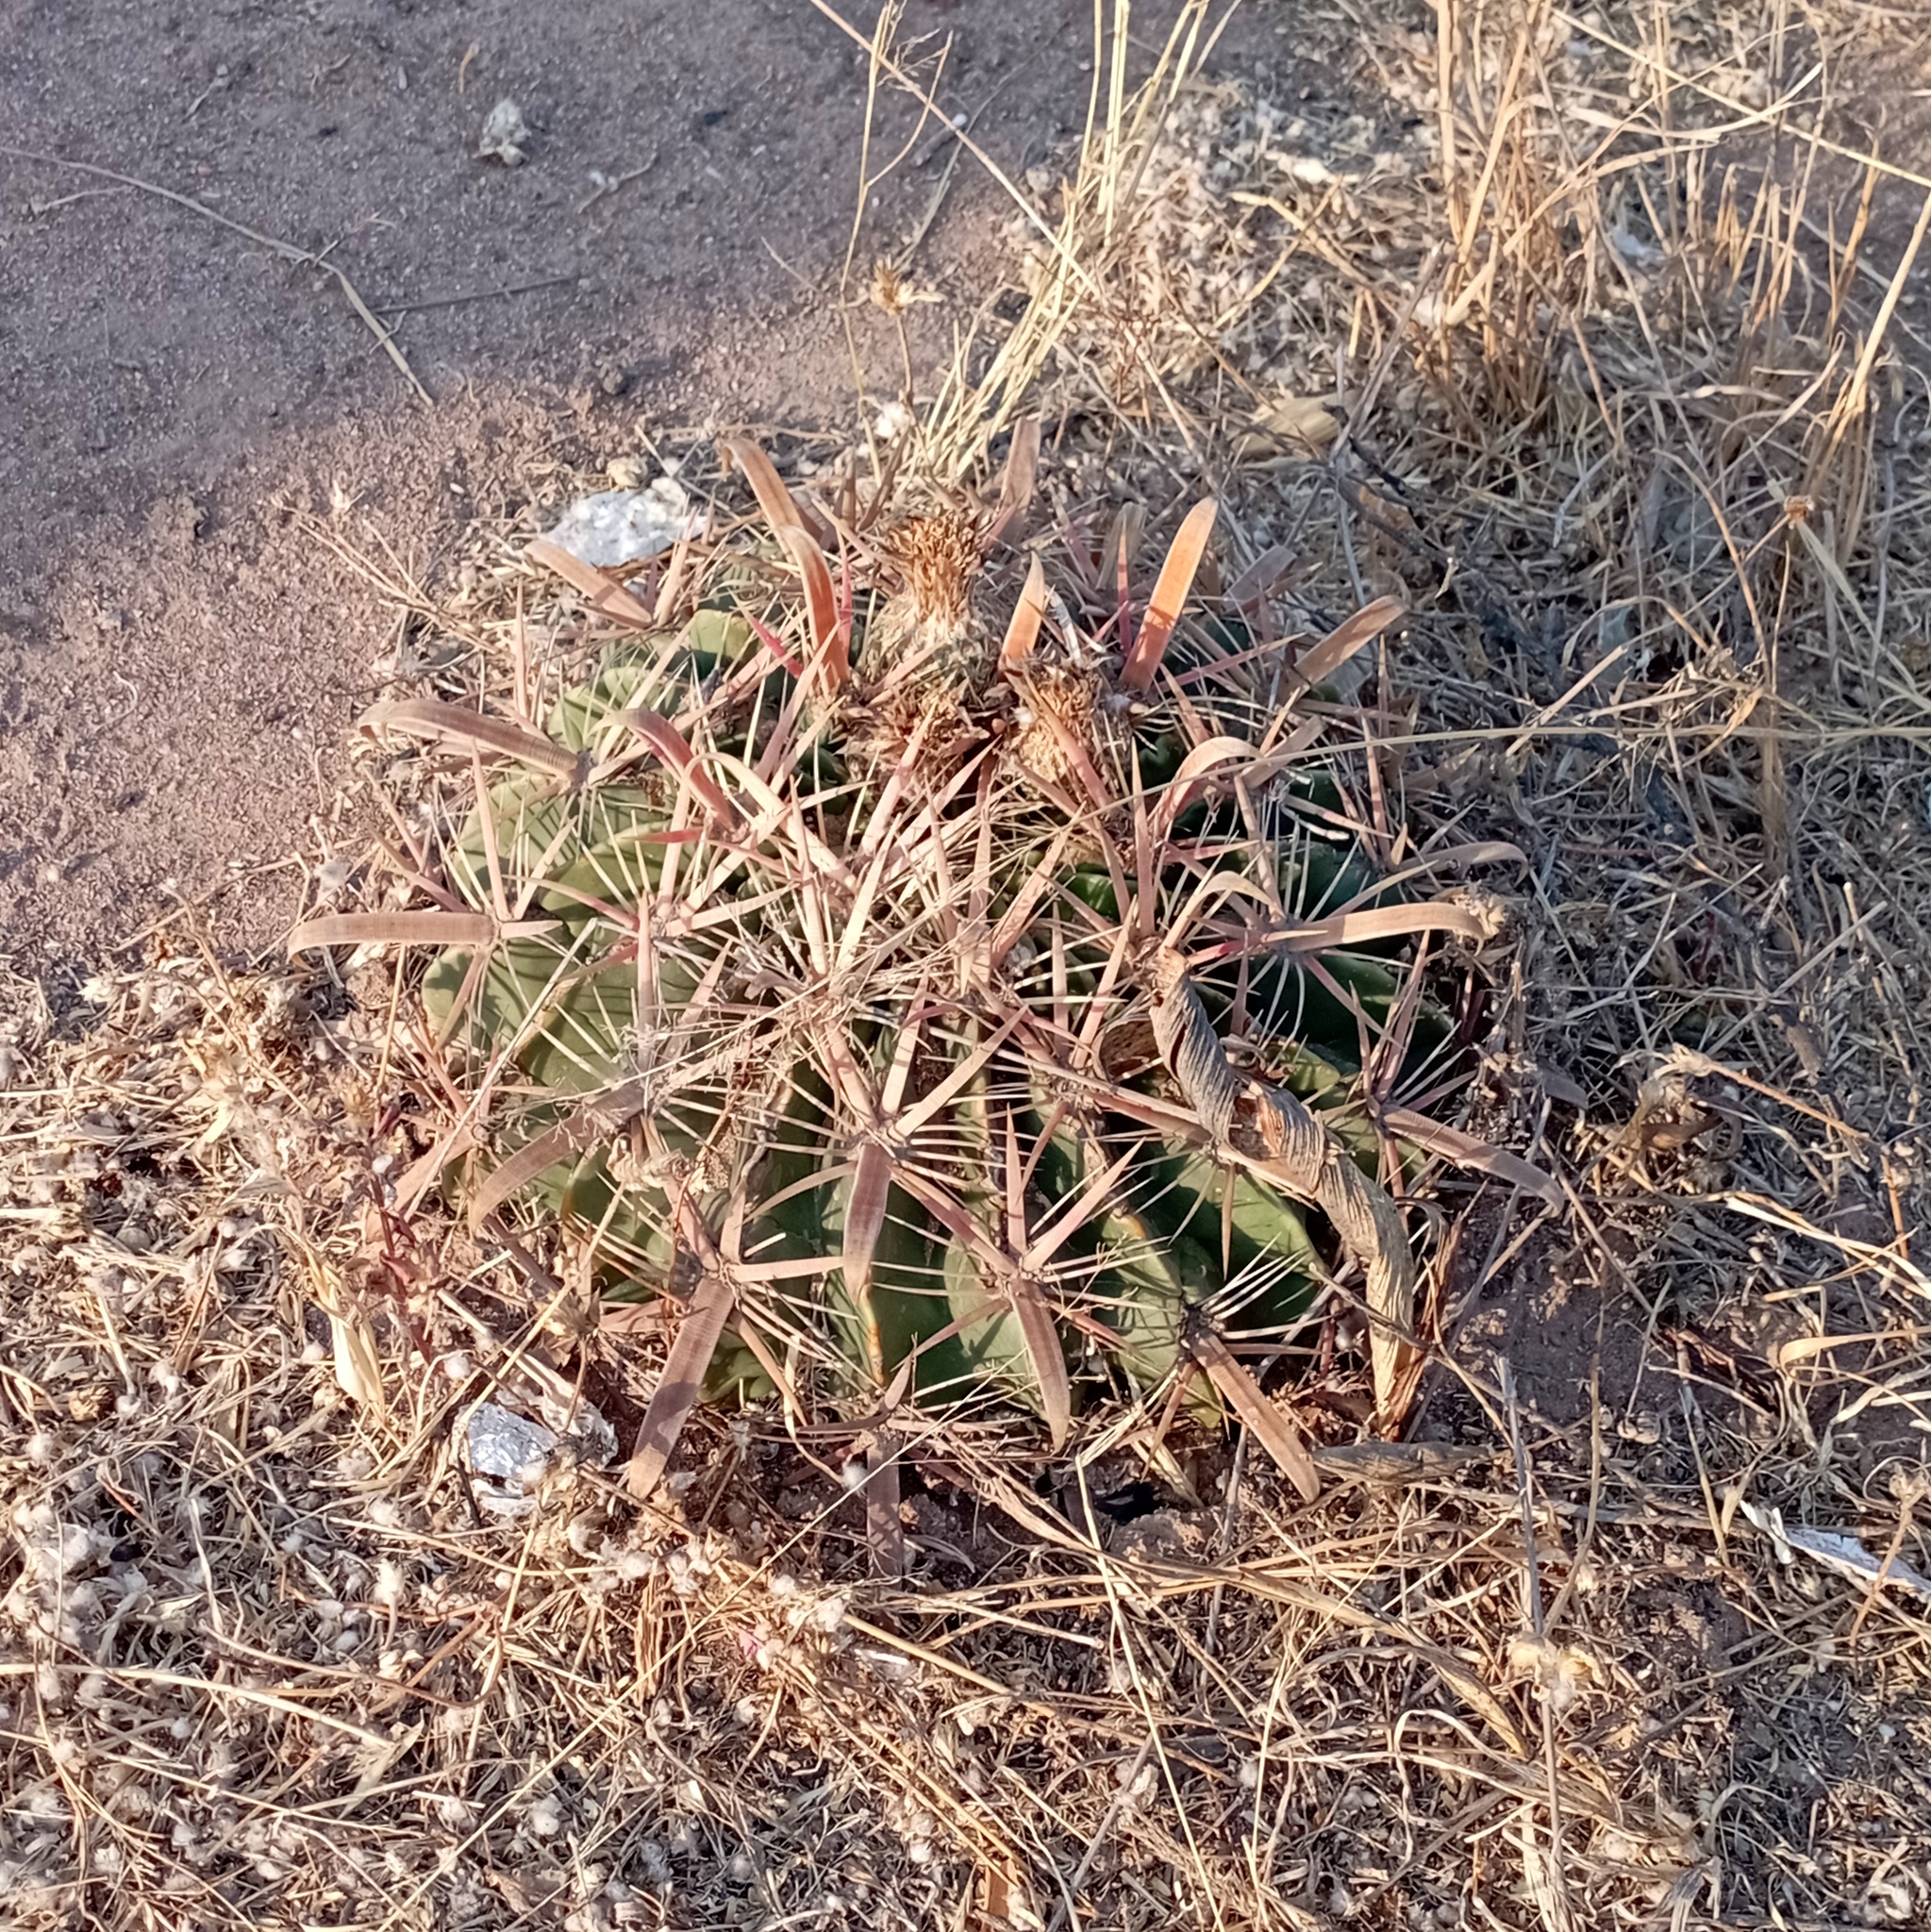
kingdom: Plantae
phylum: Tracheophyta
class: Magnoliopsida
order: Caryophyllales
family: Cactaceae
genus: Ferocactus
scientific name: Ferocactus latispinus
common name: Devil's-tongue cactus
